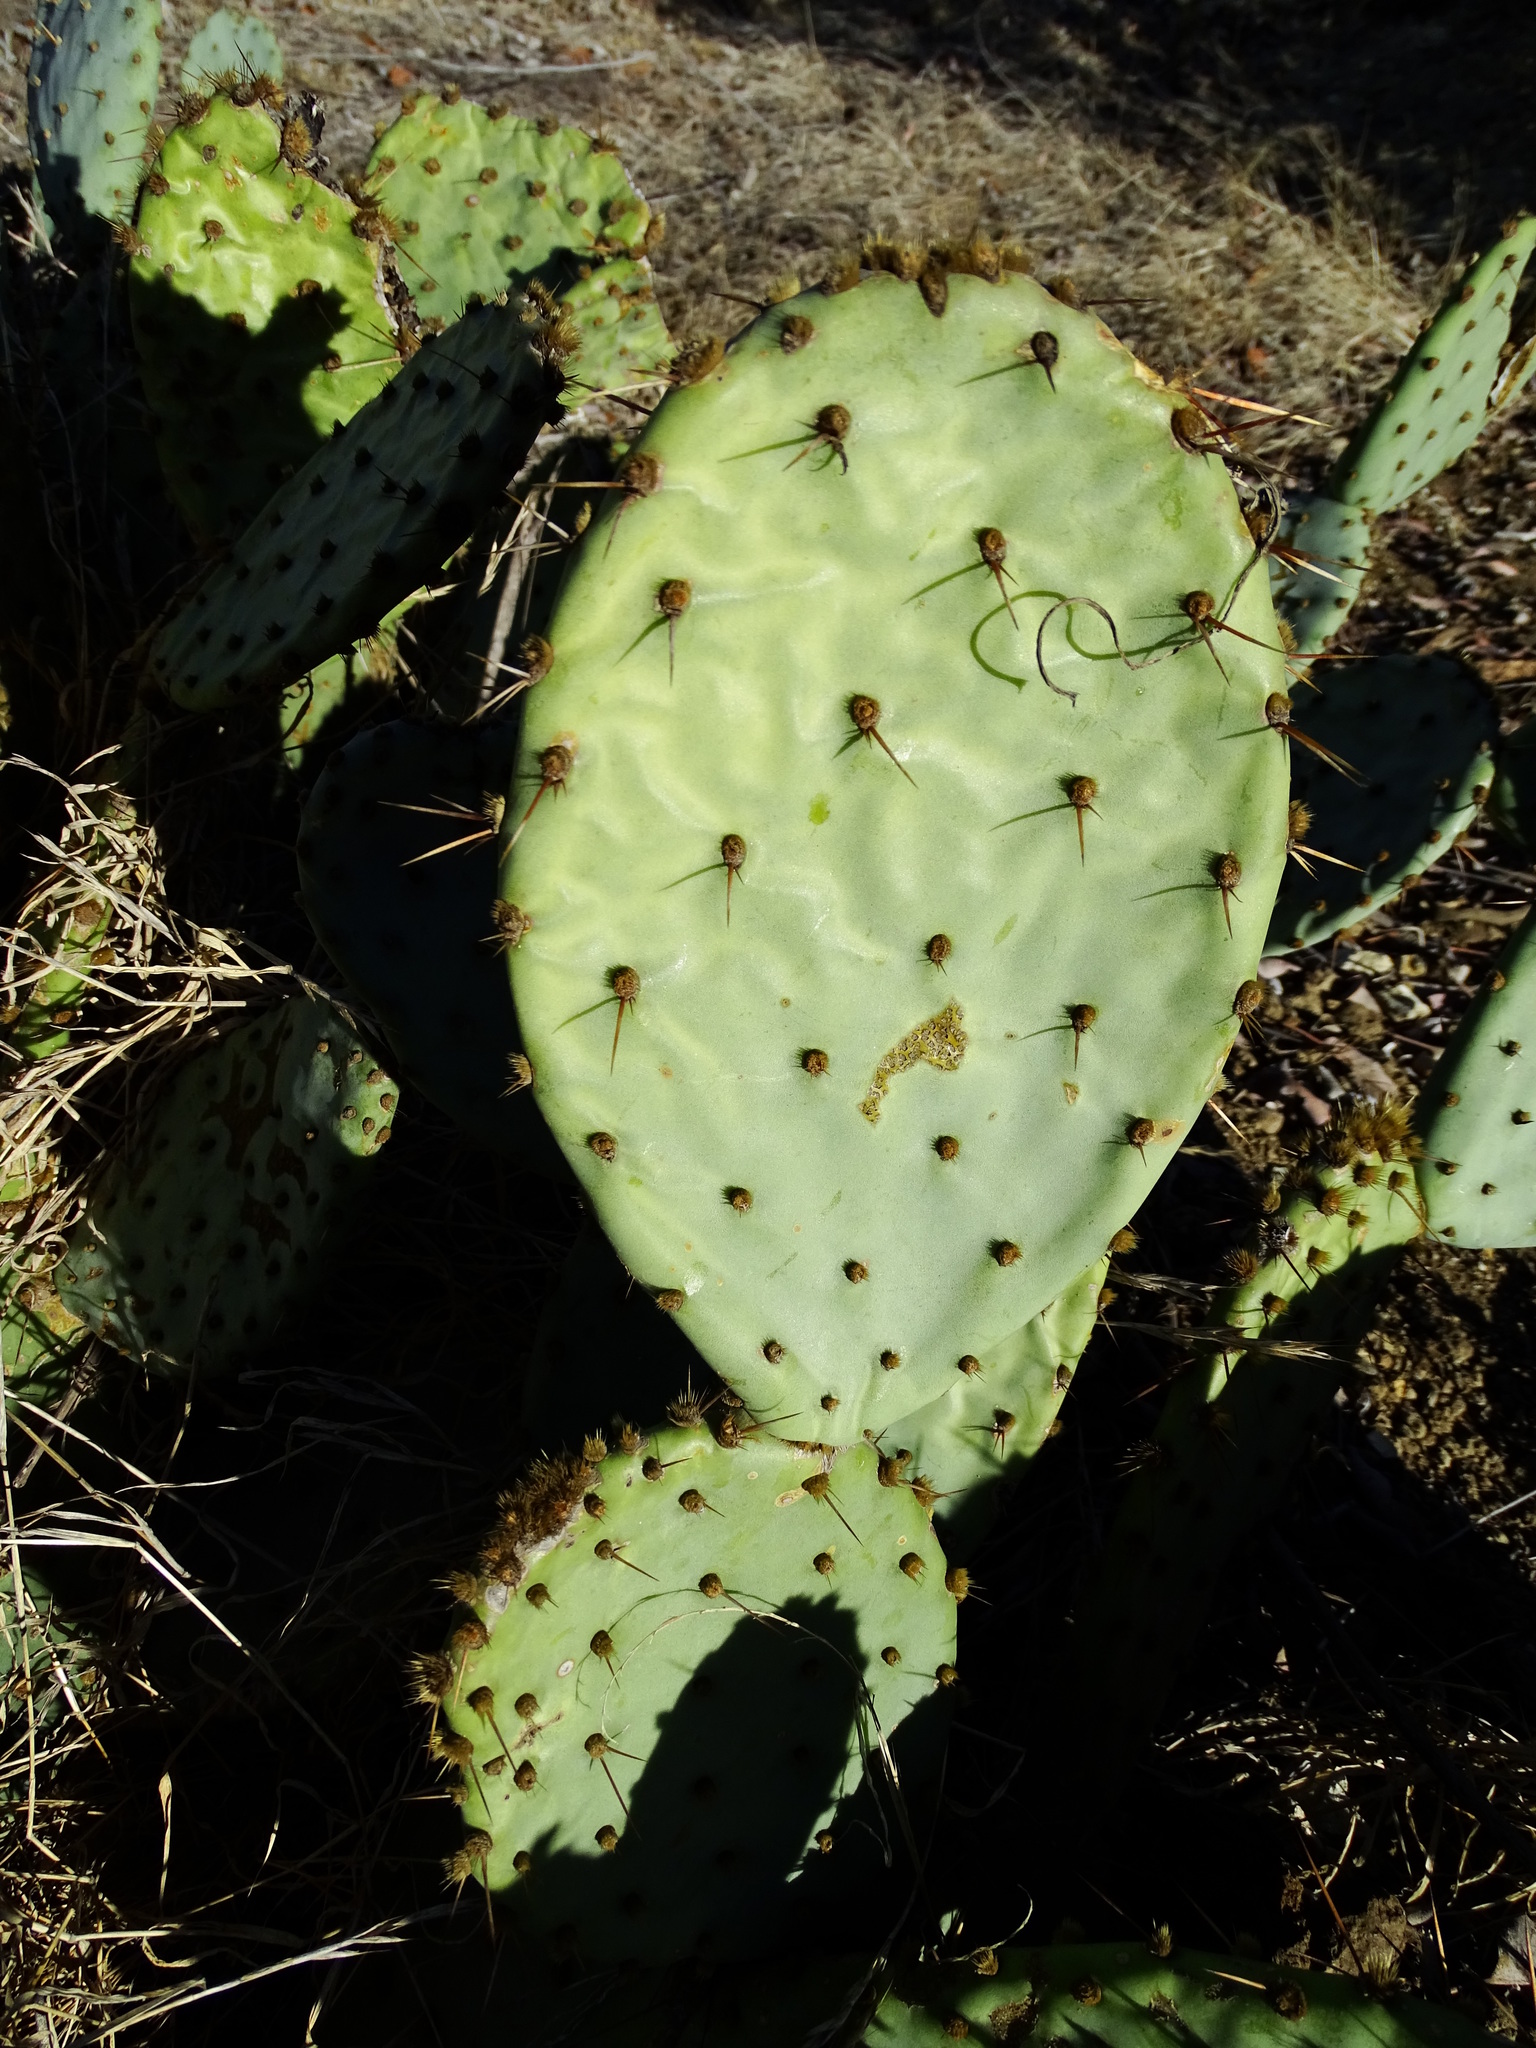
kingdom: Plantae
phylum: Tracheophyta
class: Magnoliopsida
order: Caryophyllales
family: Cactaceae
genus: Opuntia
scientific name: Opuntia littoralis
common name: Coastal prickly-pear
